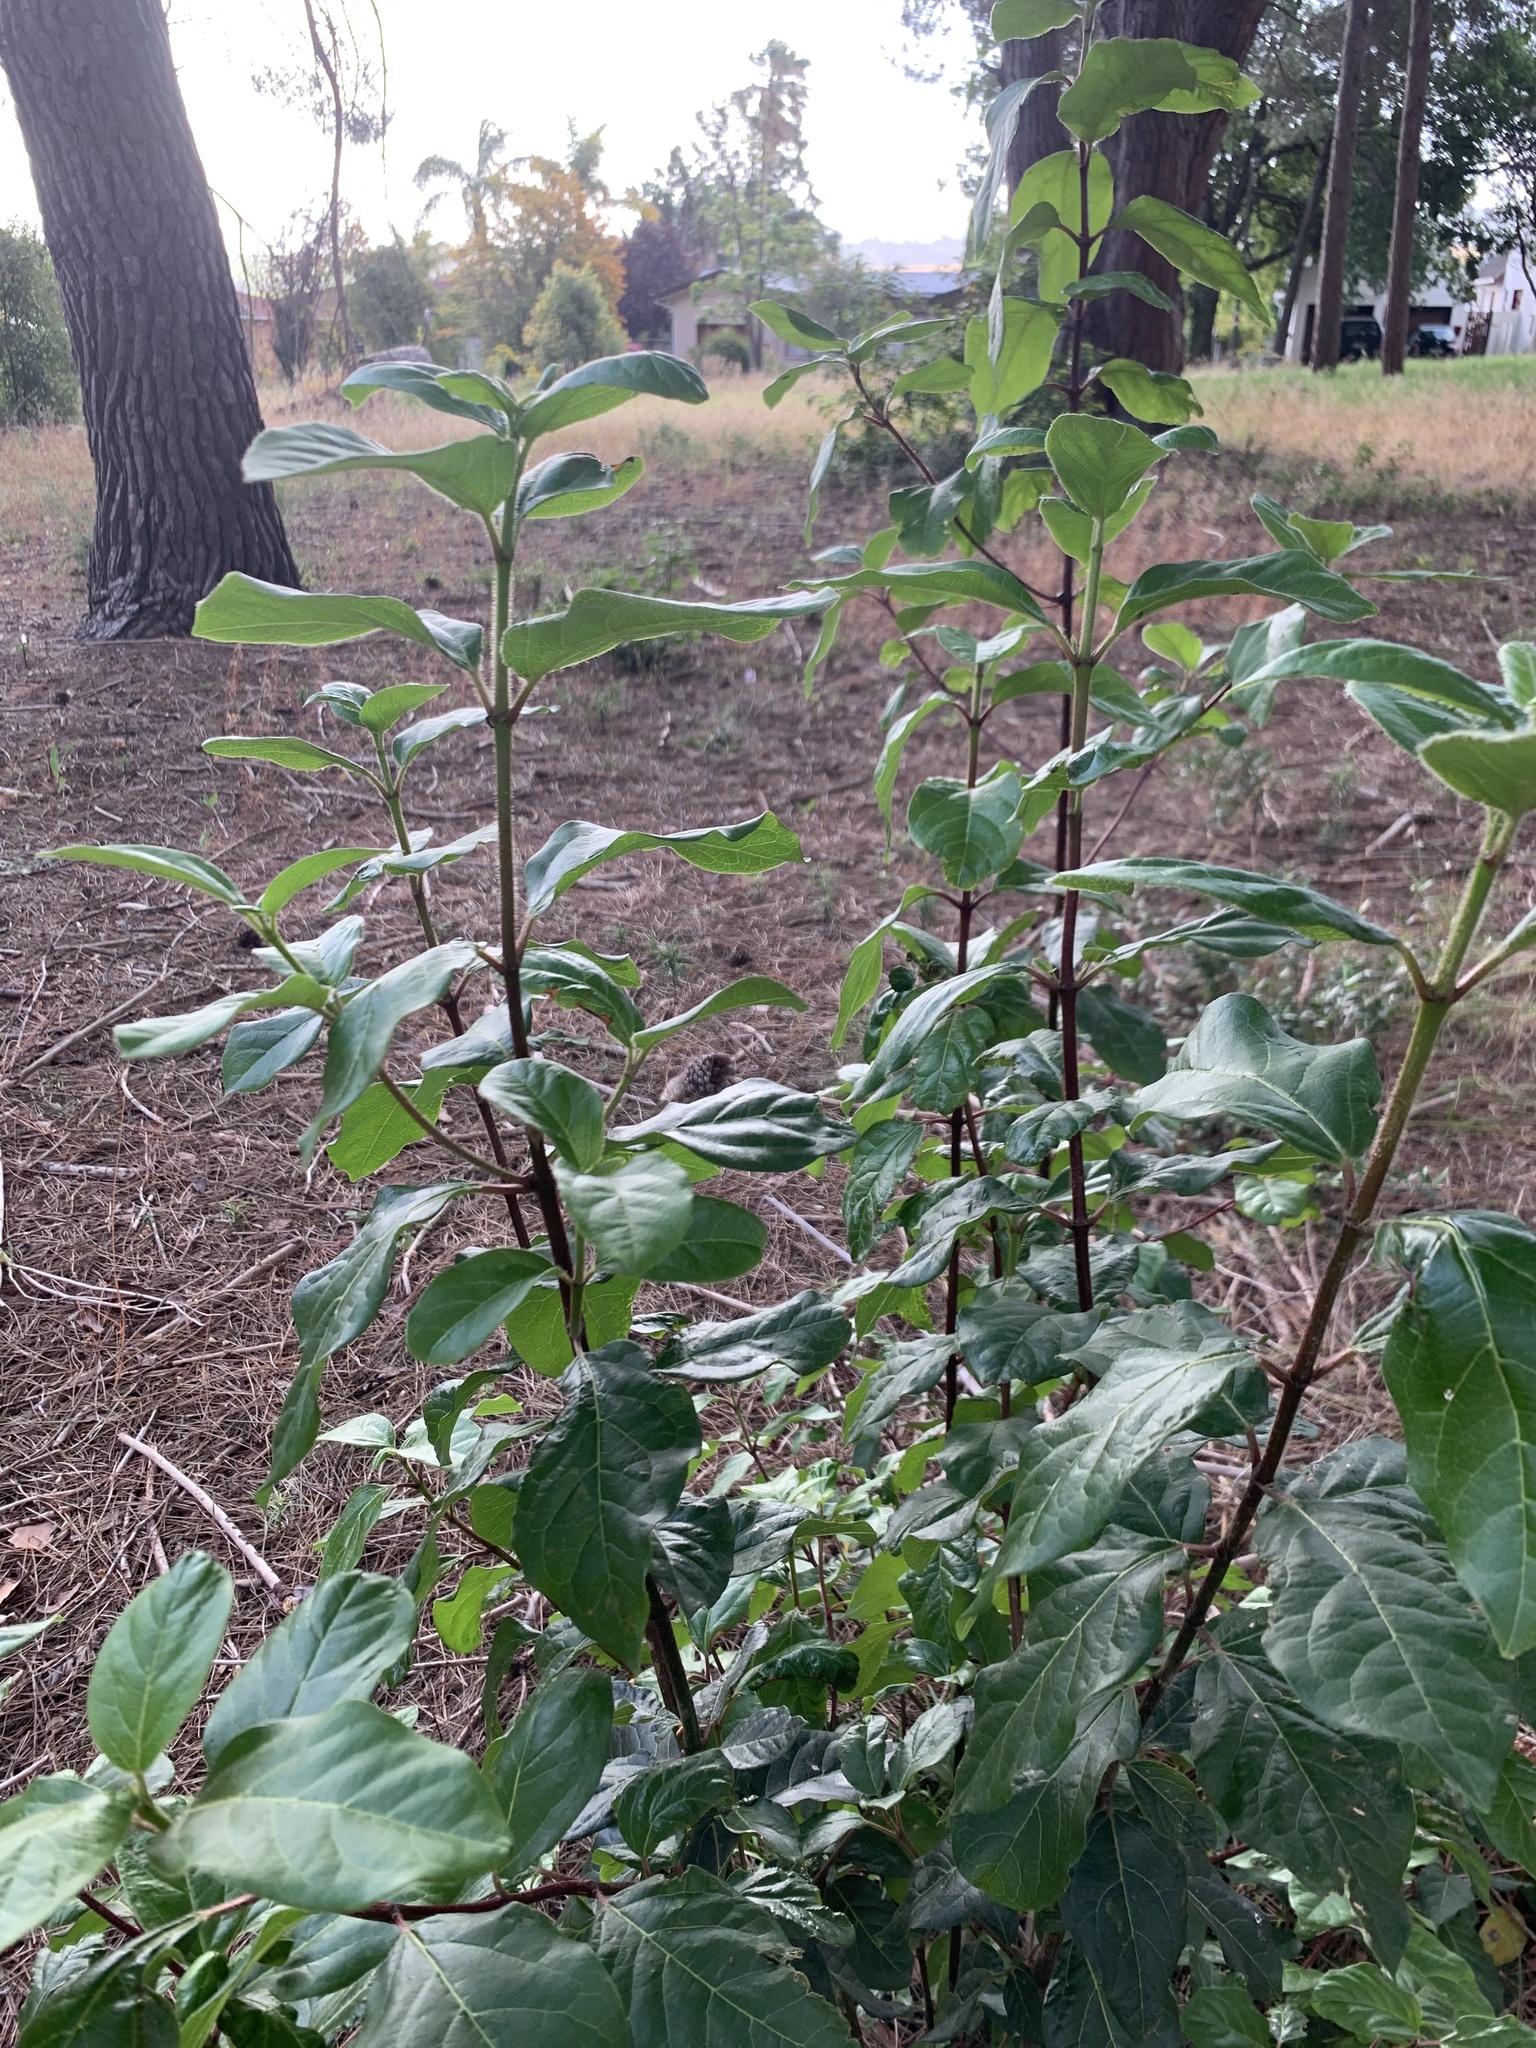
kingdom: Plantae
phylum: Tracheophyta
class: Magnoliopsida
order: Dipsacales
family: Viburnaceae
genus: Viburnum
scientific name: Viburnum tinus
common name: Laurustinus
